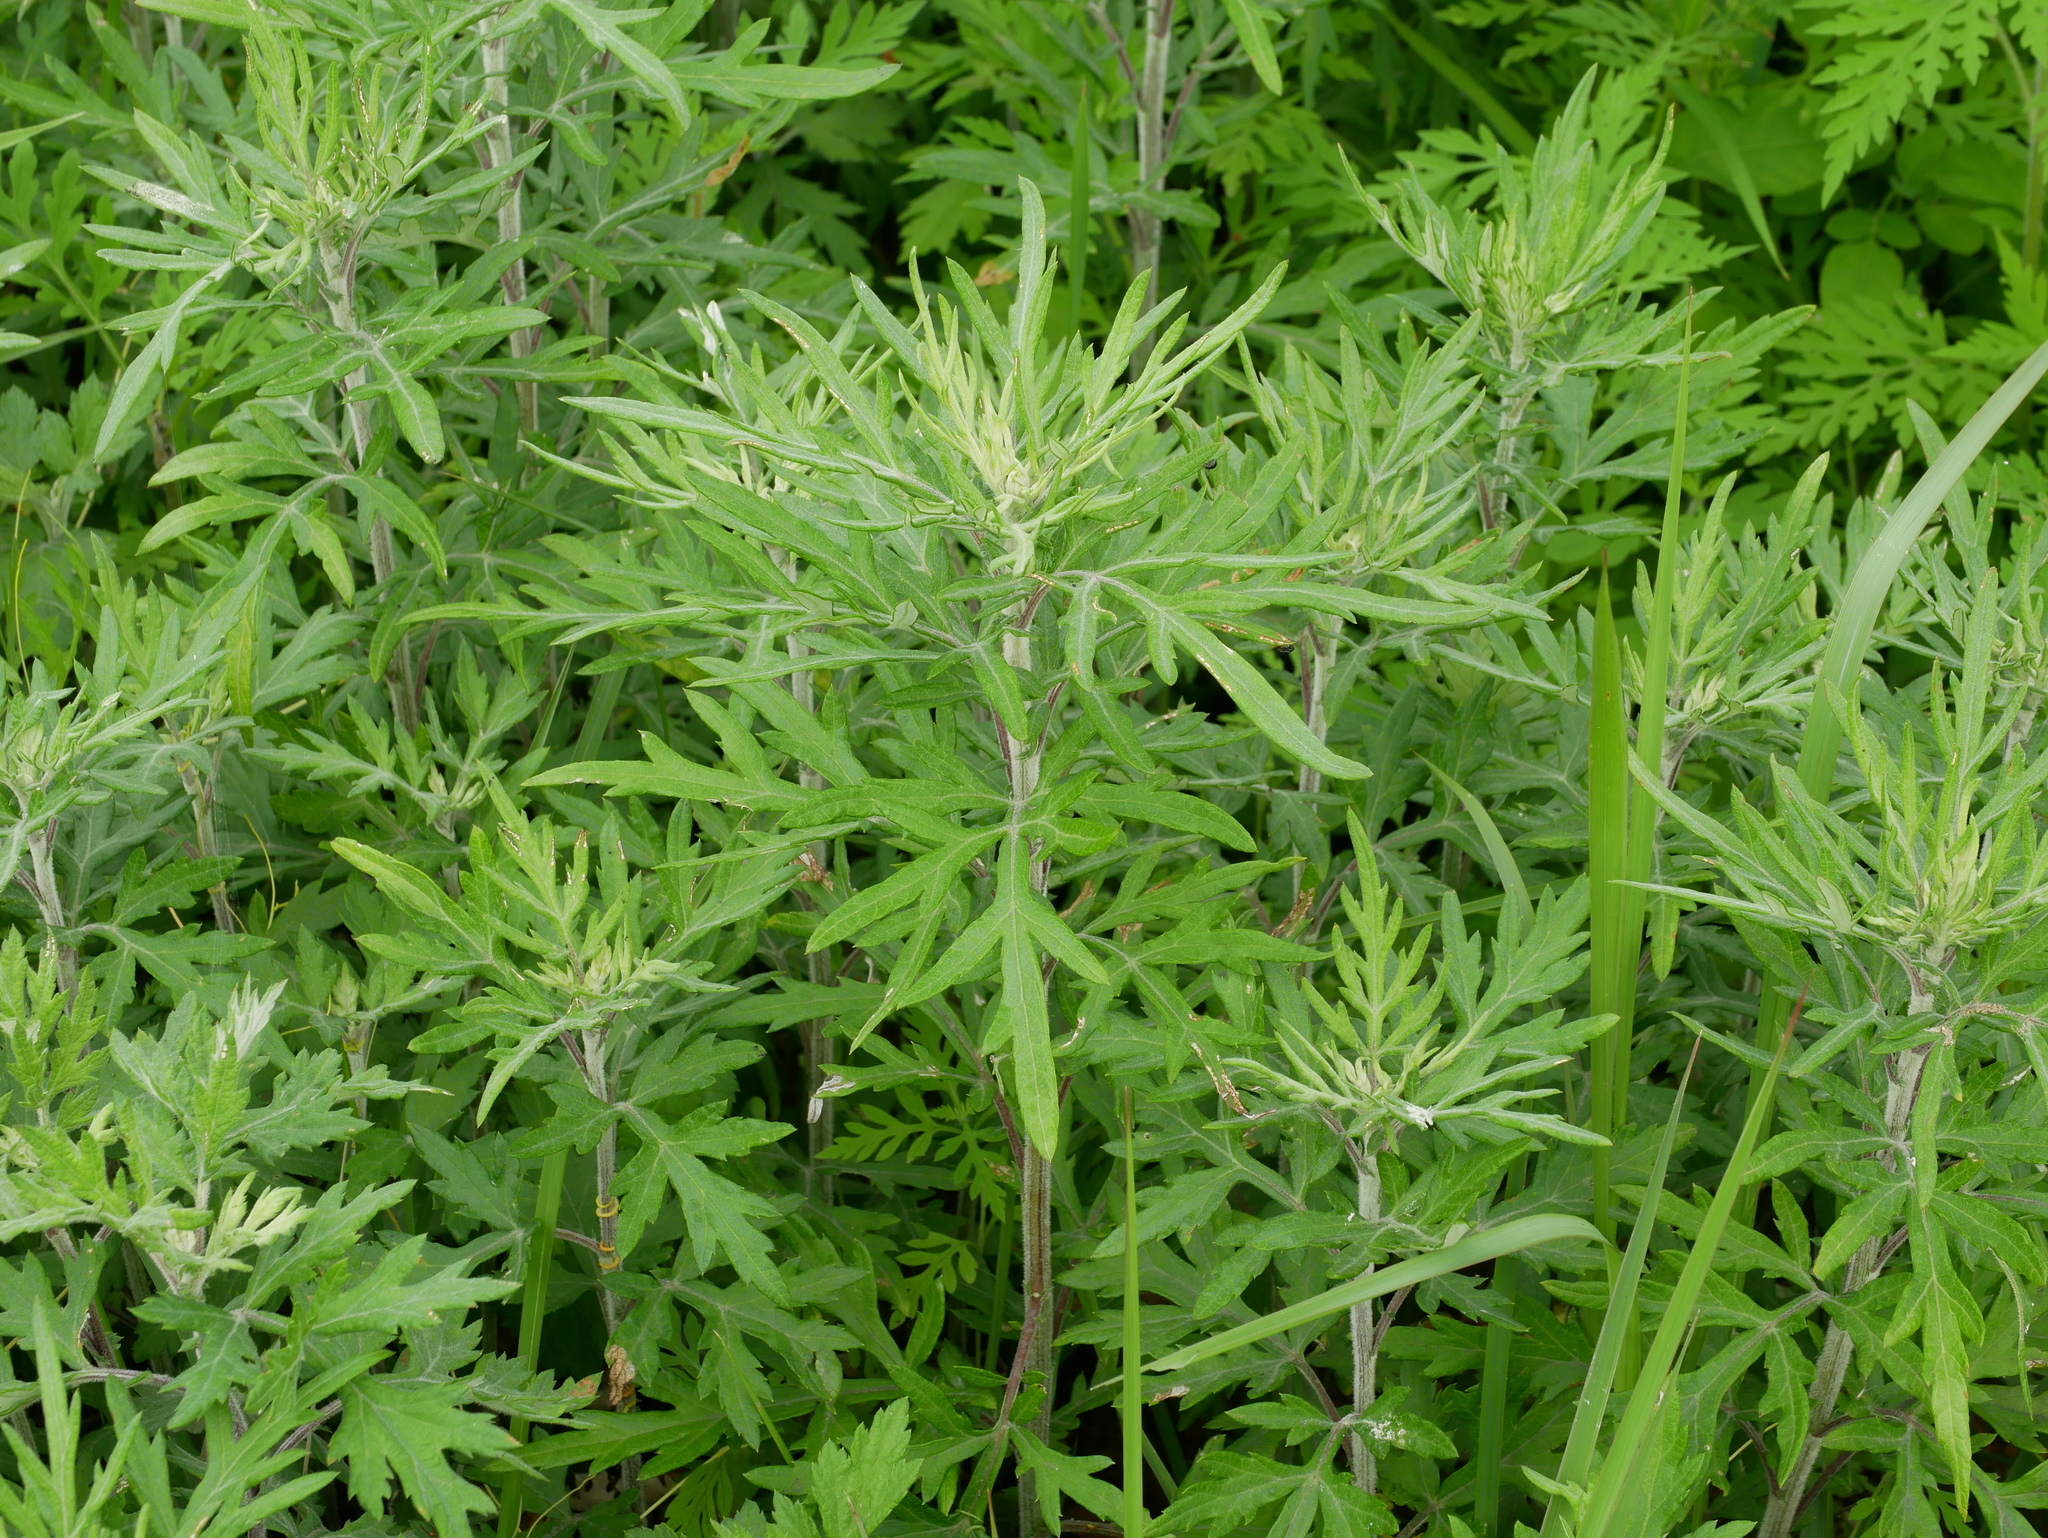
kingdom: Plantae
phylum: Tracheophyta
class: Magnoliopsida
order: Asterales
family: Asteraceae
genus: Artemisia
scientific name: Artemisia indica
